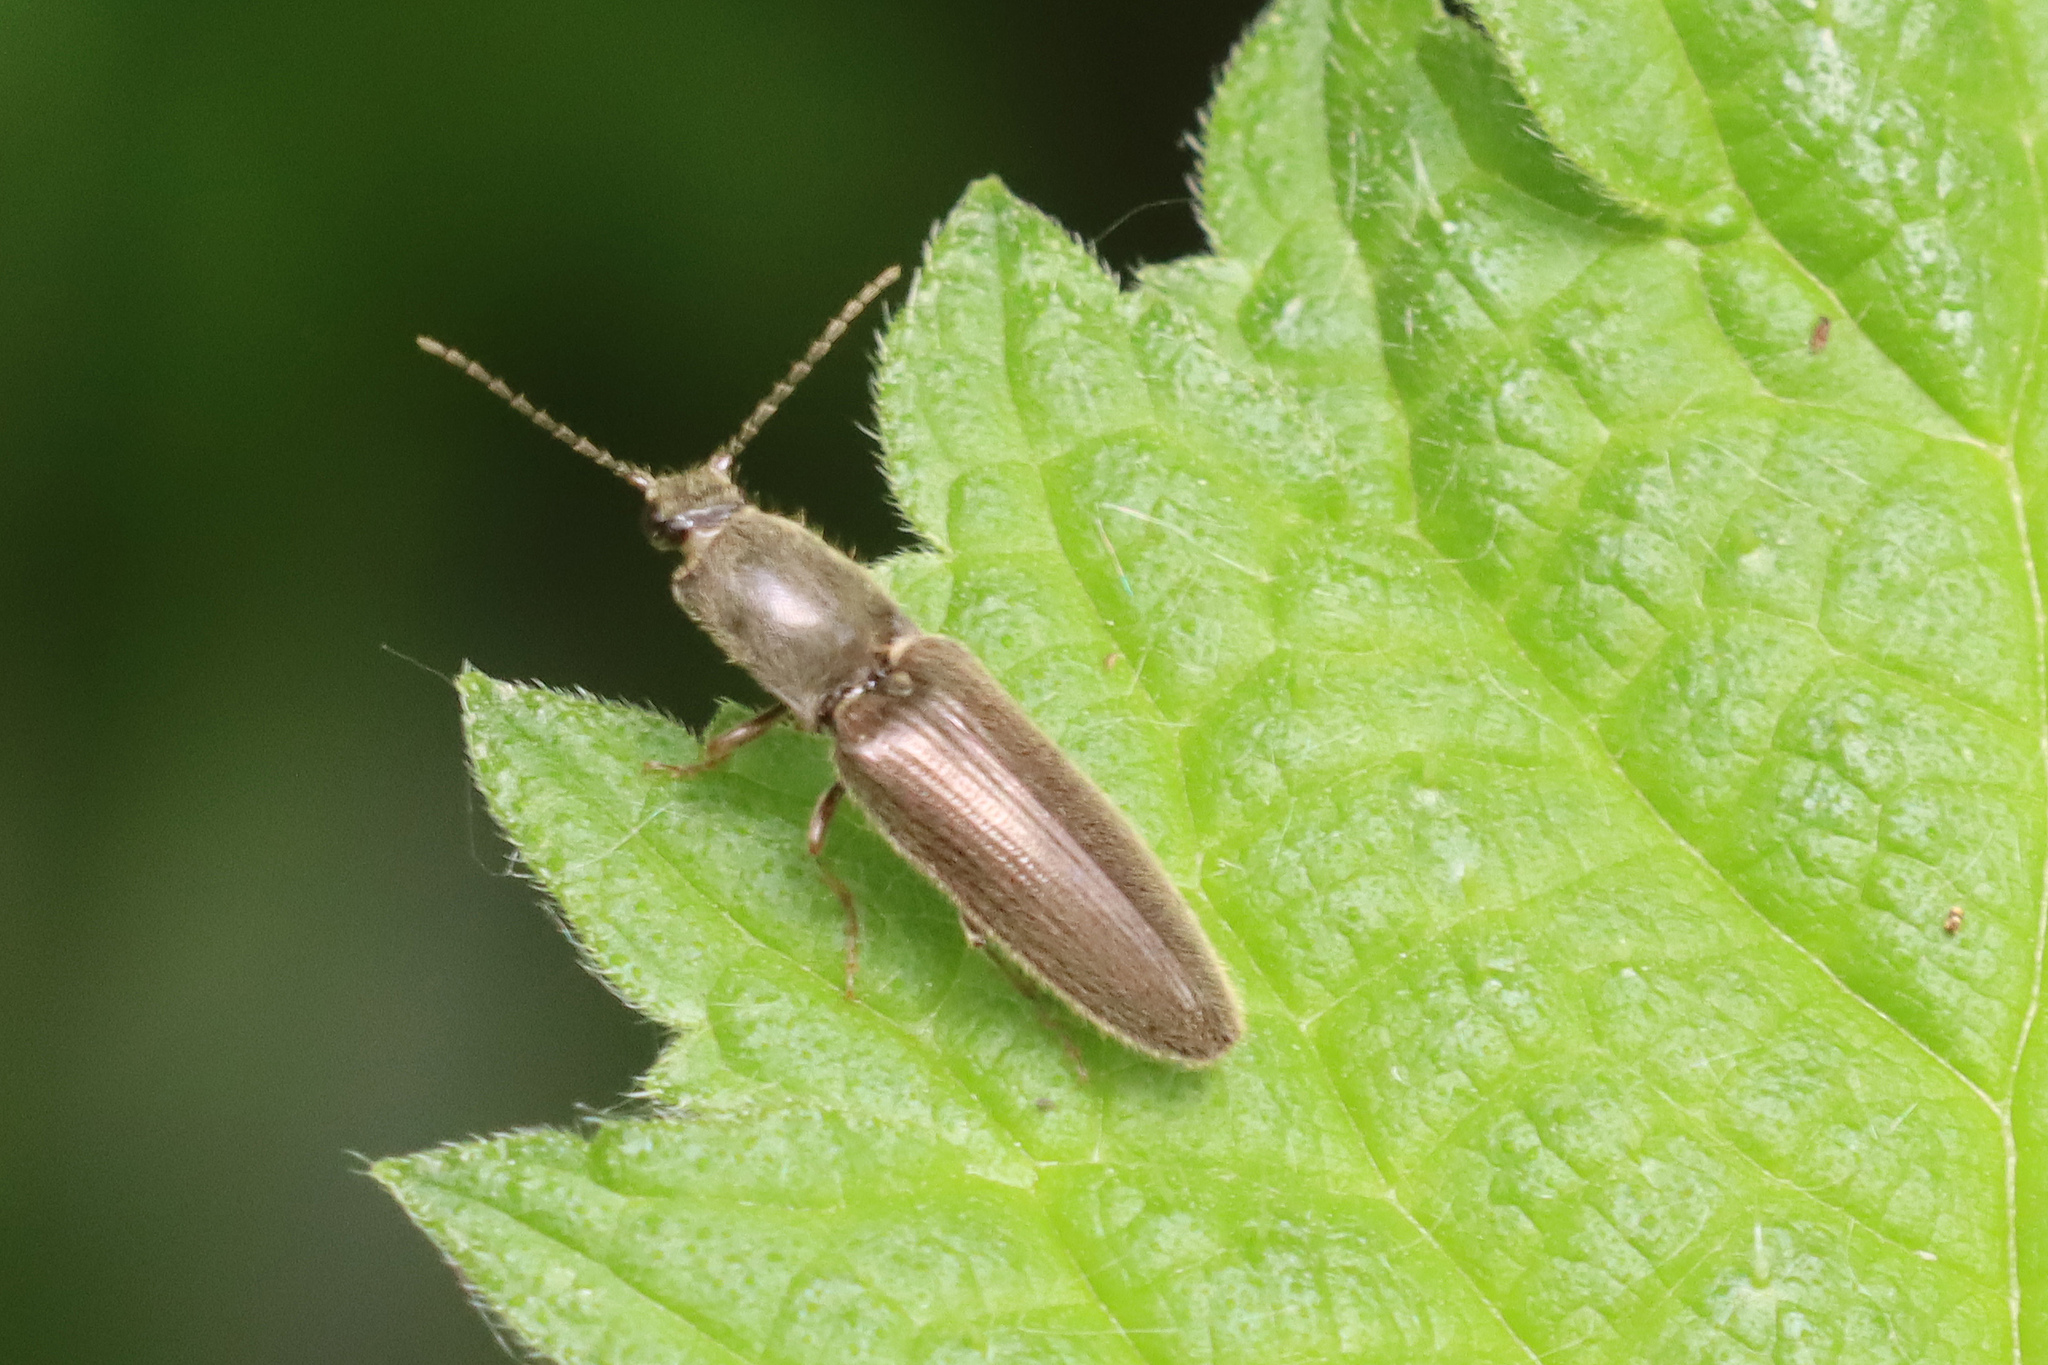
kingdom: Animalia
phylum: Arthropoda
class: Insecta
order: Coleoptera
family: Elateridae
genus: Athous
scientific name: Athous haemorrhoidalis
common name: Red-brown click beetle
